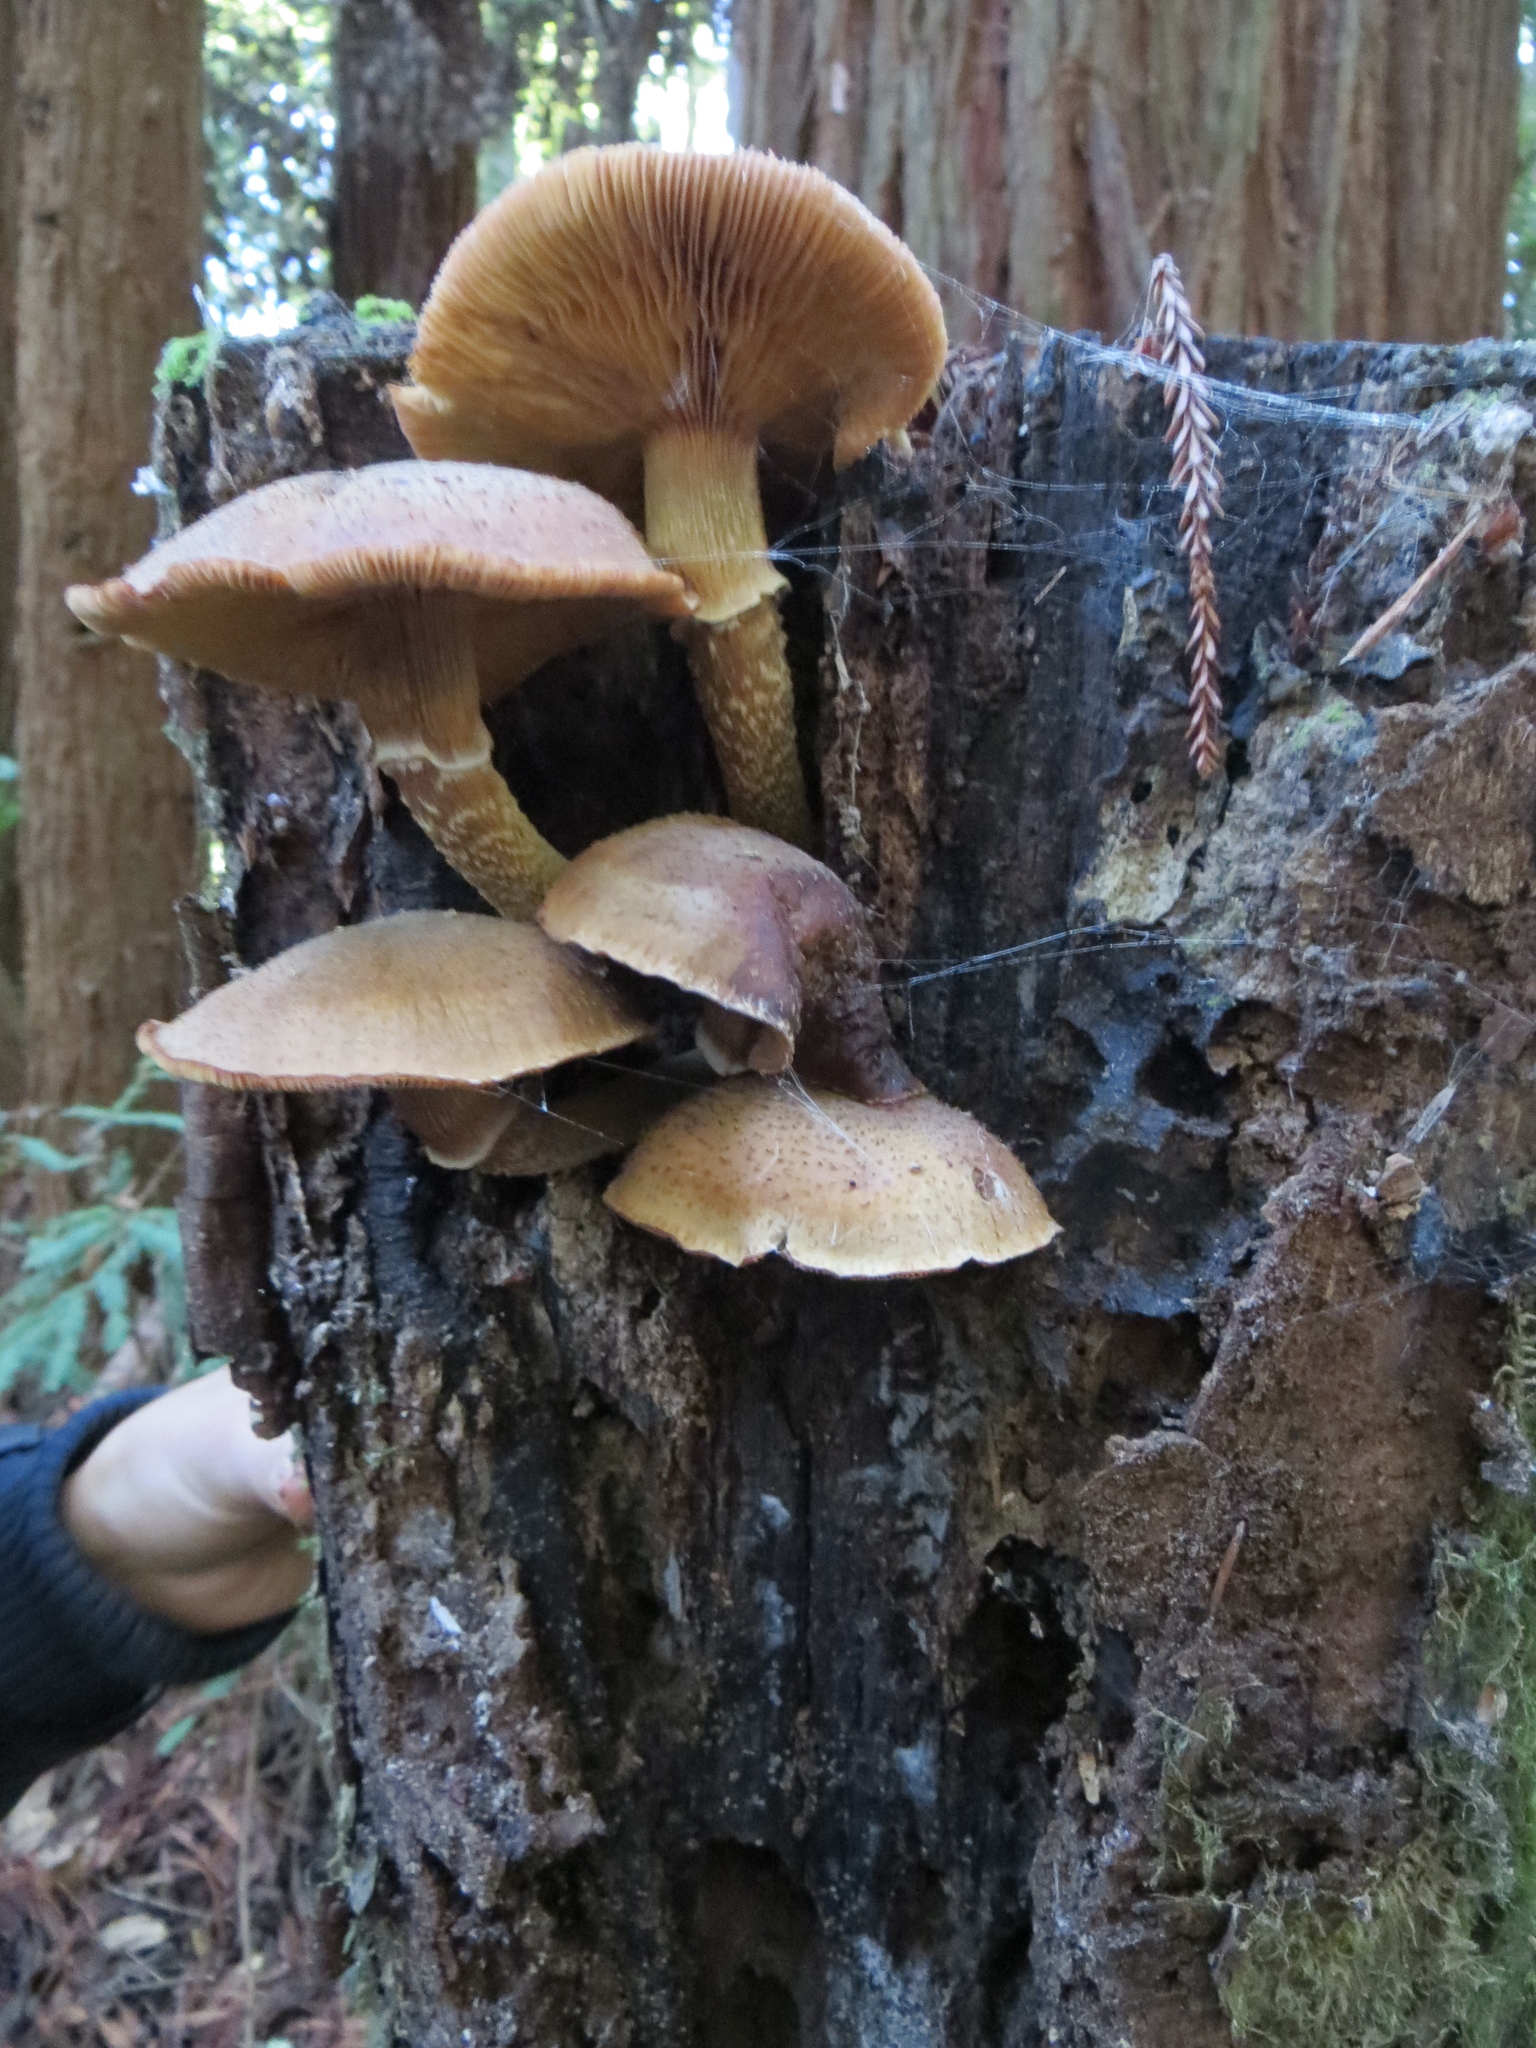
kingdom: Fungi
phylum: Basidiomycota
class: Agaricomycetes
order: Agaricales
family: Physalacriaceae
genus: Armillaria
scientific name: Armillaria mellea
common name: Honey fungus
